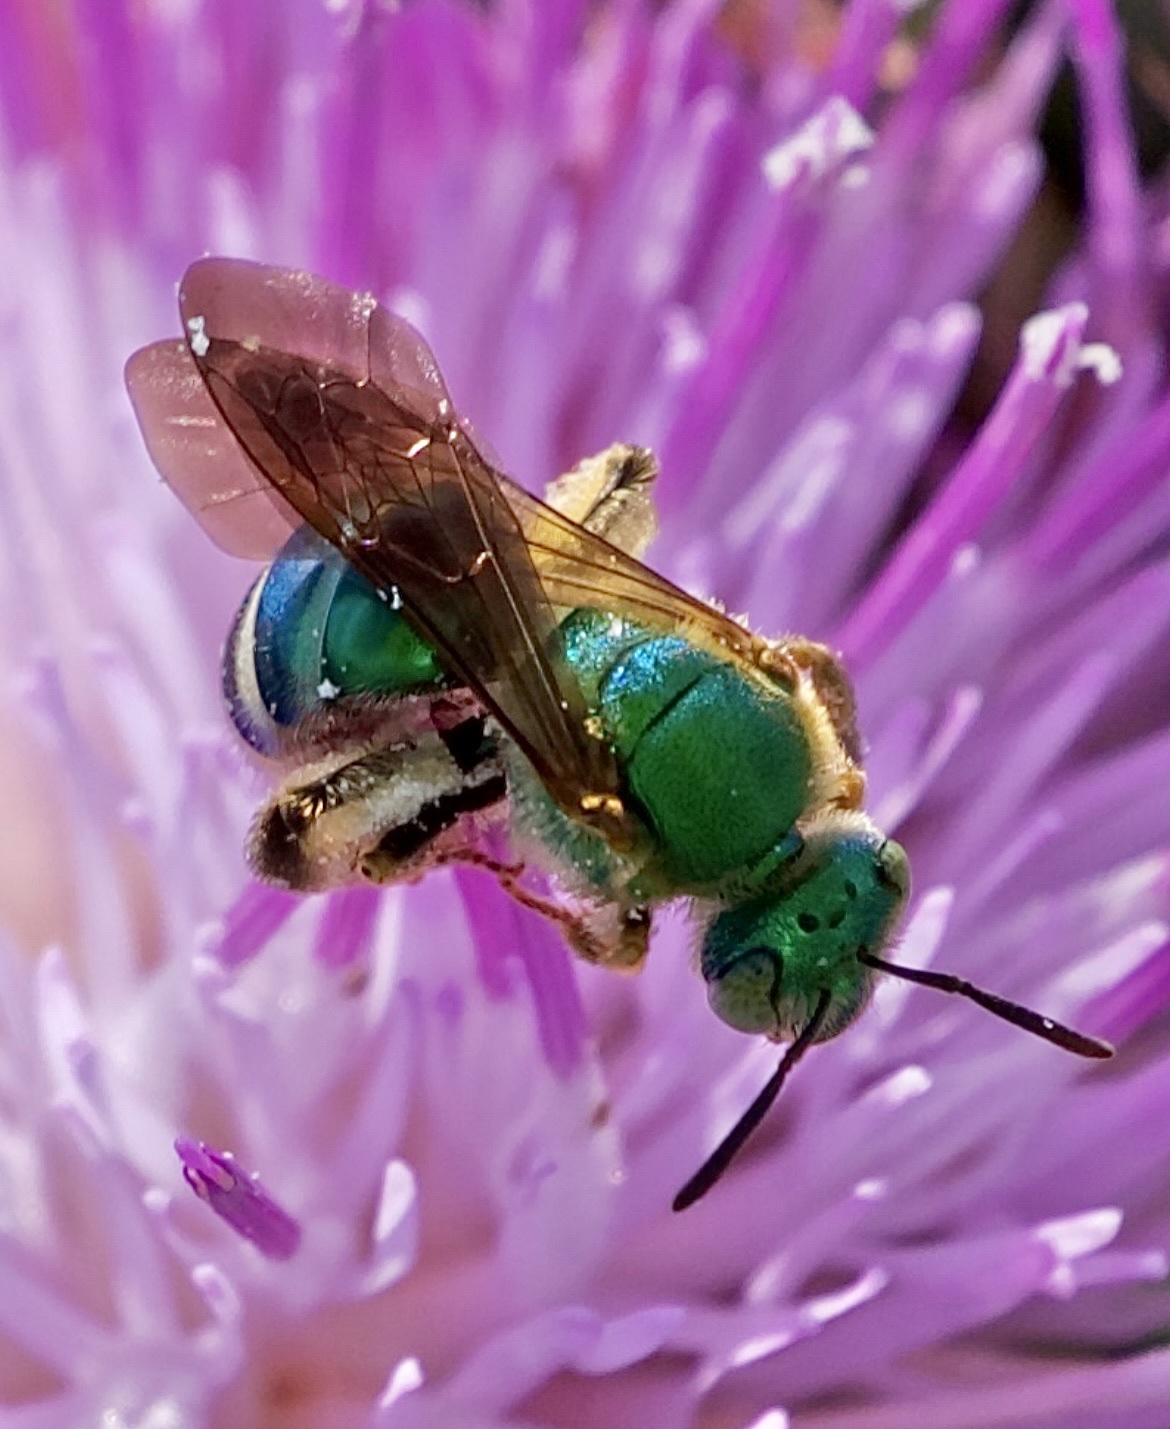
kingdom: Animalia
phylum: Arthropoda
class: Insecta
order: Hymenoptera
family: Halictidae
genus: Agapostemon
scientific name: Agapostemon splendens
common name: Brown-winged striped sweat bee
